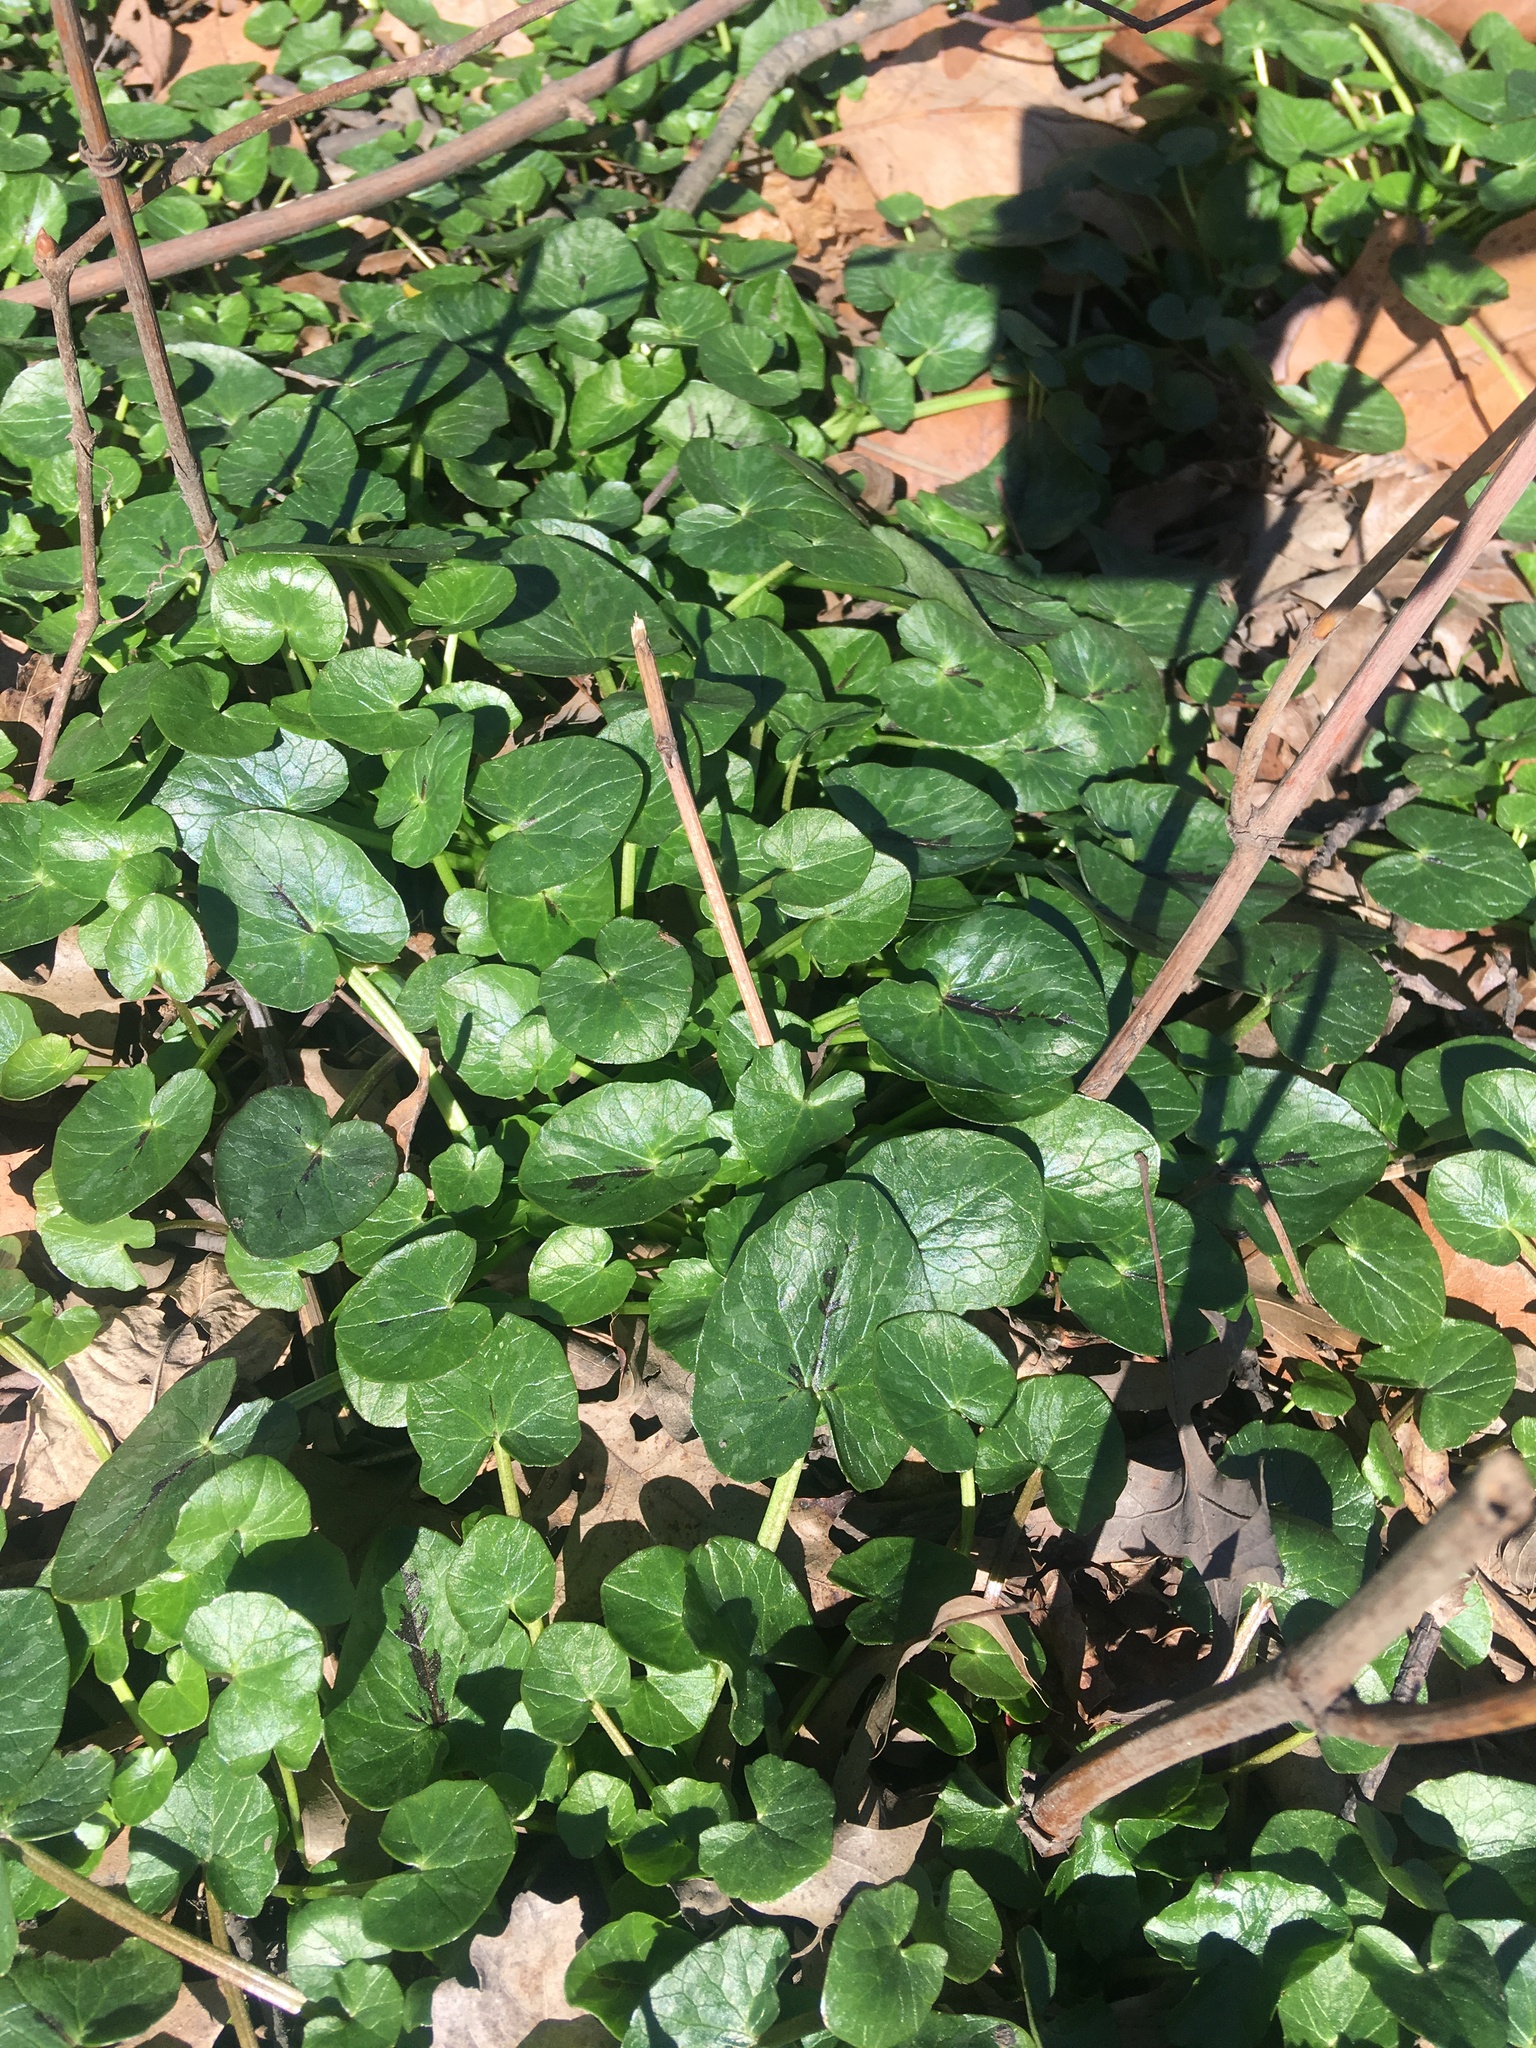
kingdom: Plantae
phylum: Tracheophyta
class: Magnoliopsida
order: Ranunculales
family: Ranunculaceae
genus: Ficaria
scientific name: Ficaria verna
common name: Lesser celandine
